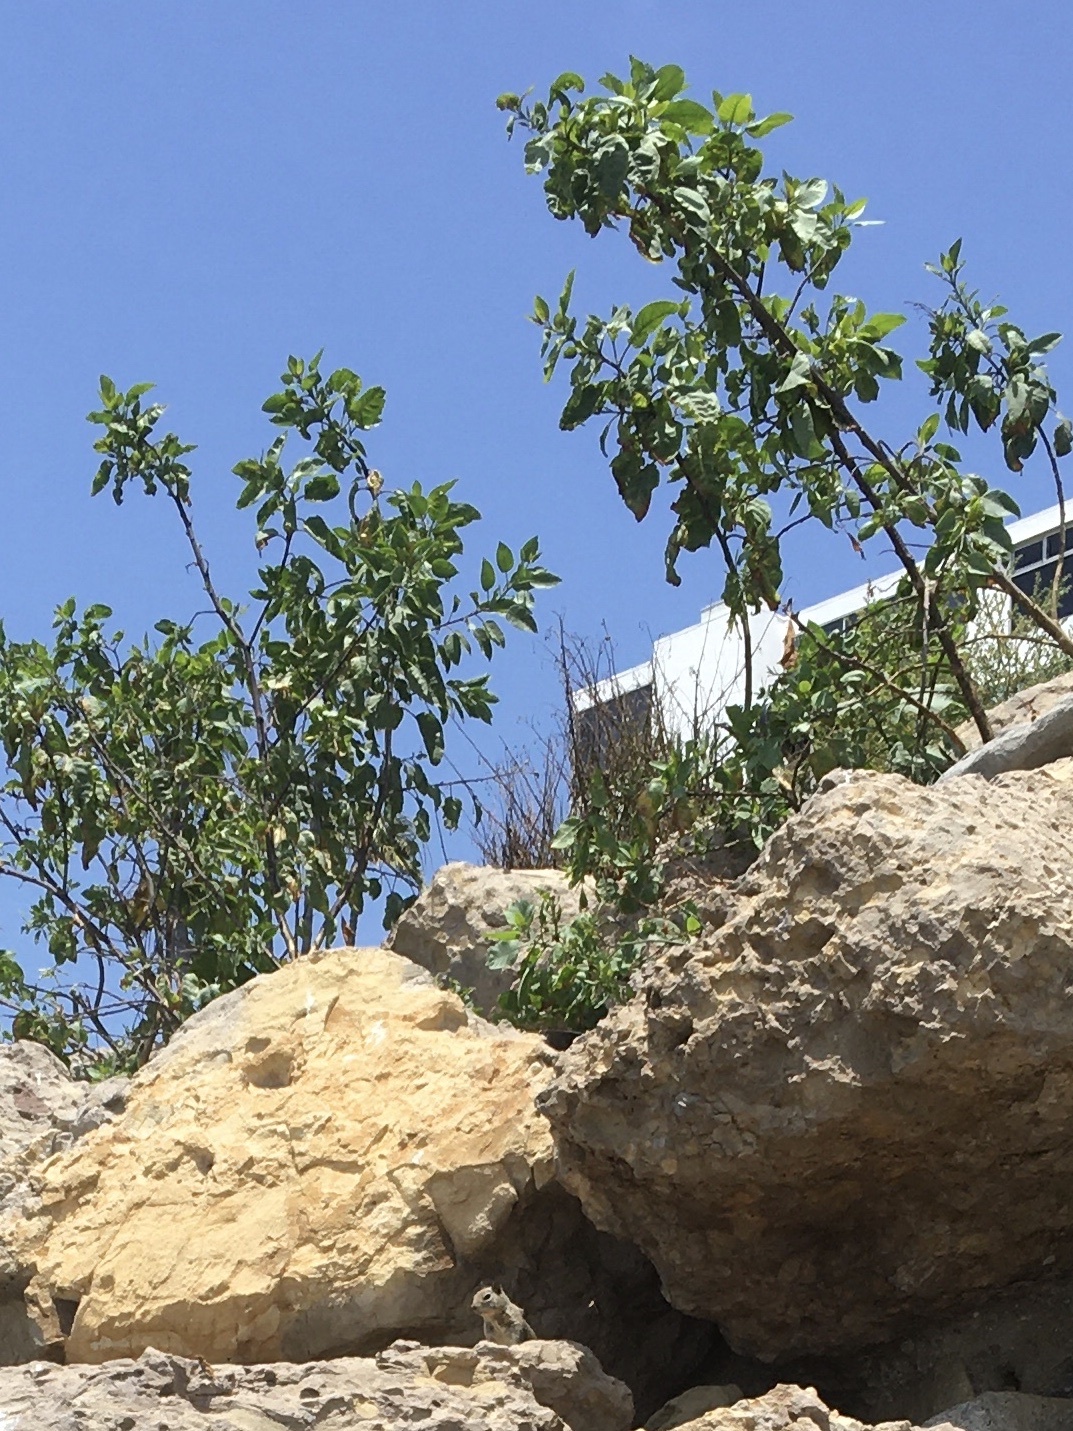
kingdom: Plantae
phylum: Tracheophyta
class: Magnoliopsida
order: Solanales
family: Solanaceae
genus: Nicotiana
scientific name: Nicotiana glauca
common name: Tree tobacco
